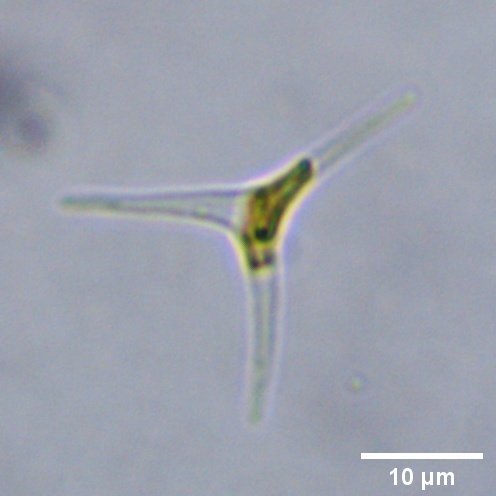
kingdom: Chromista
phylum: Ochrophyta
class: Bacillariophyceae
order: Naviculales
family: Phaeodactylaceae
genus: Phaeodactylum
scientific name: Phaeodactylum tricornutum
